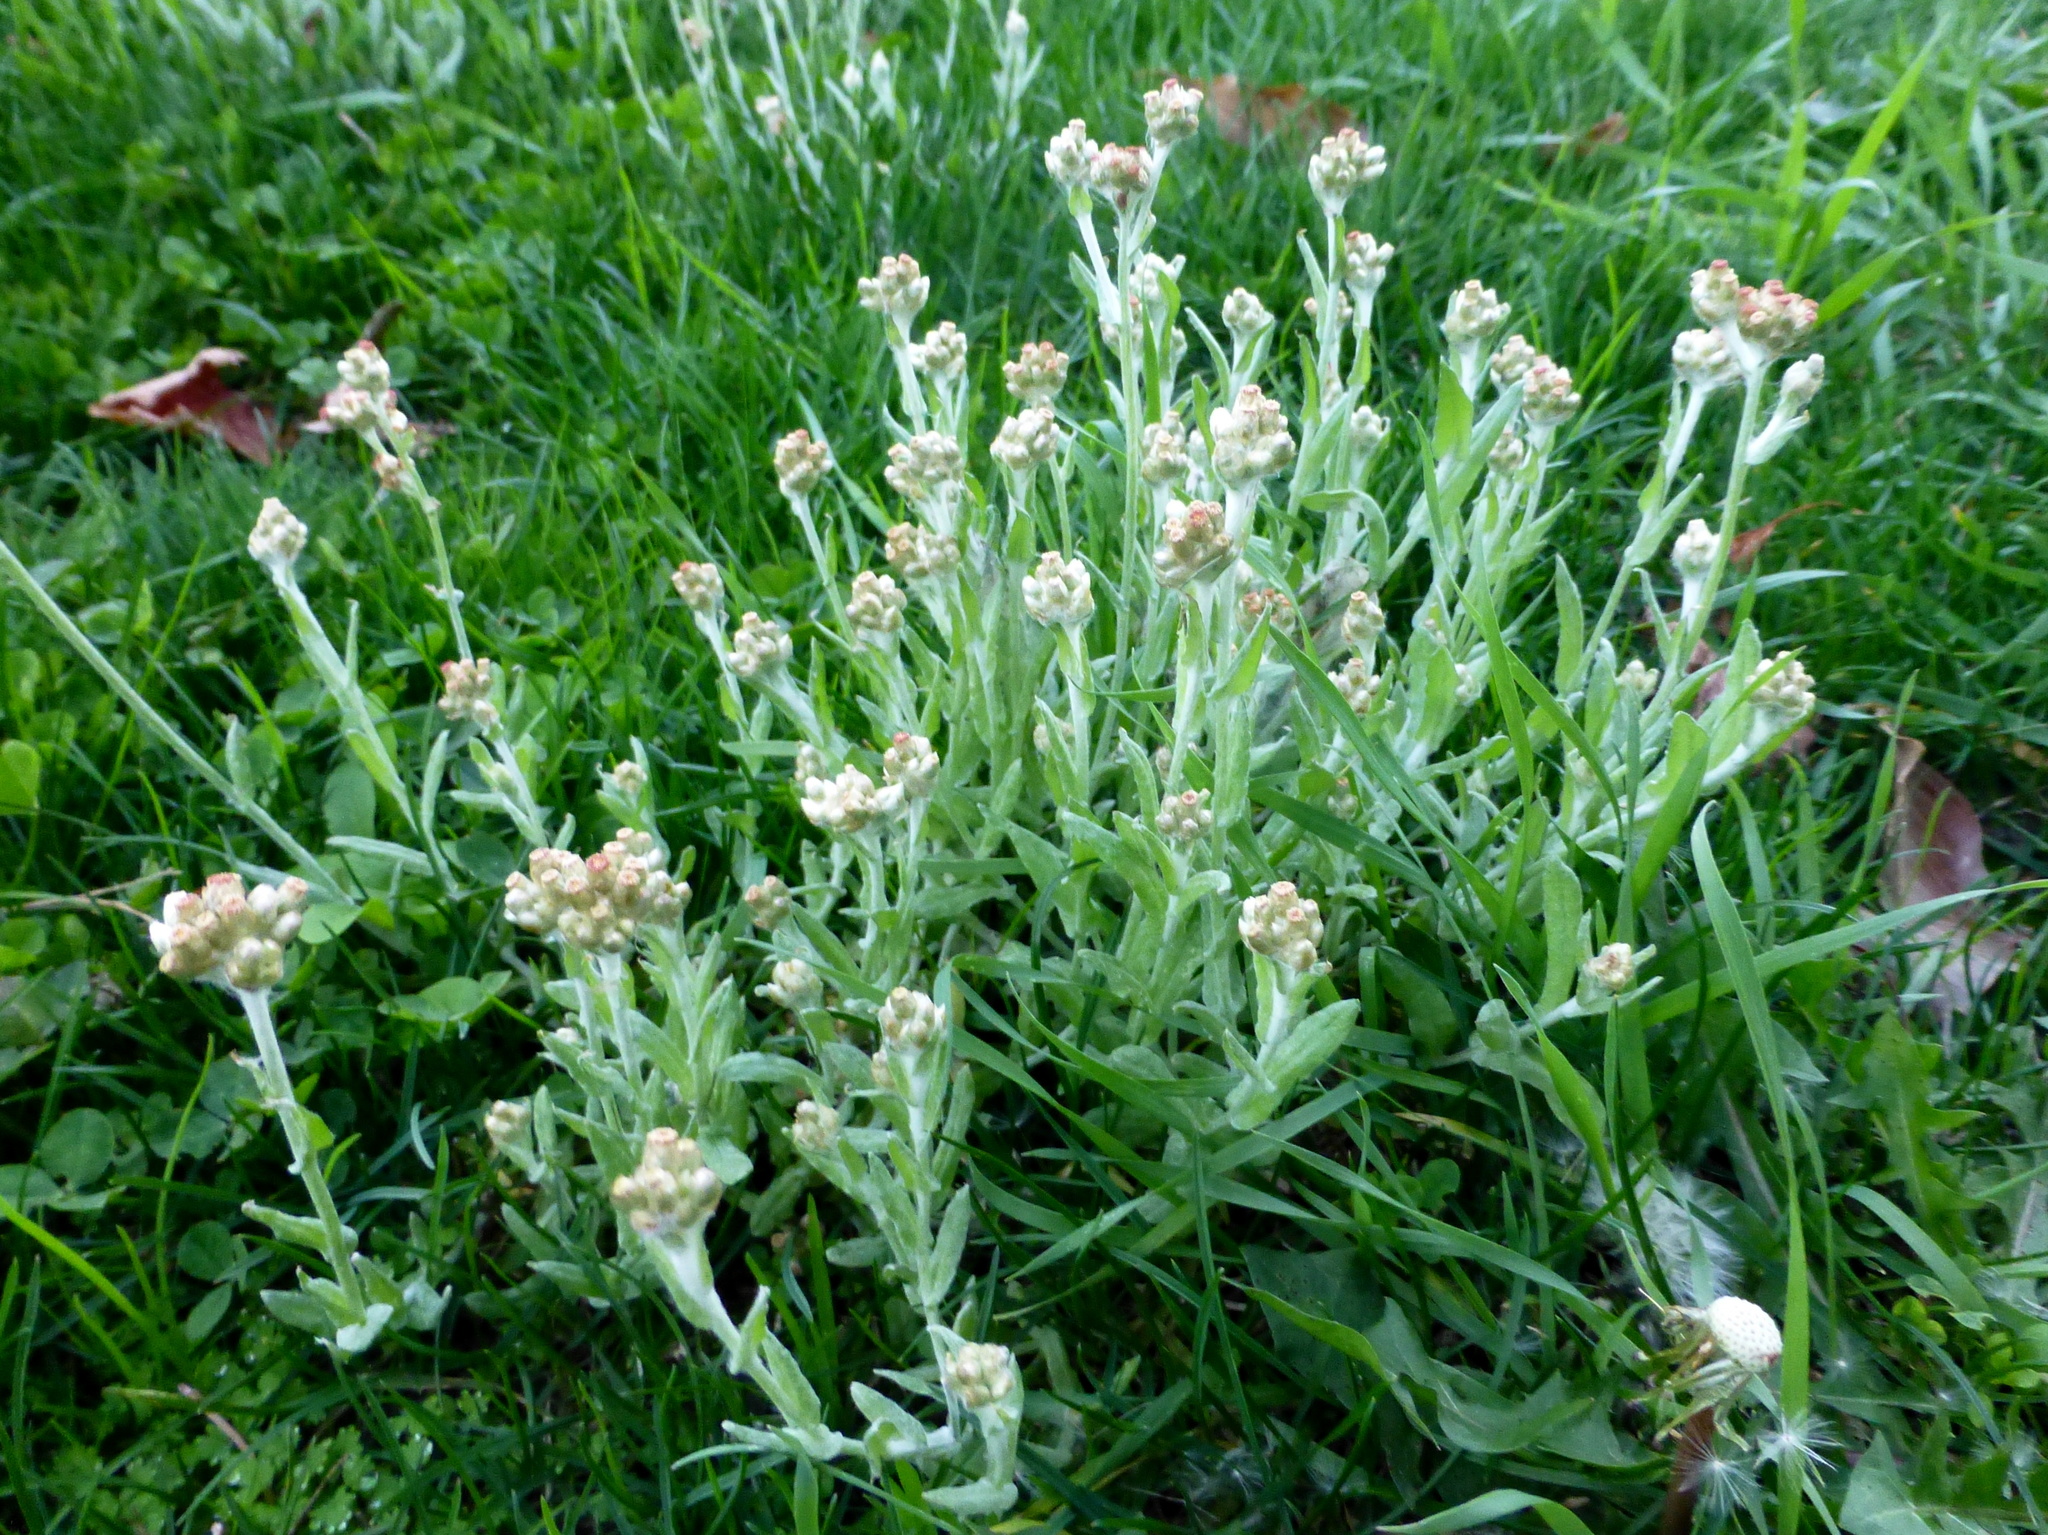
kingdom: Plantae
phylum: Tracheophyta
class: Magnoliopsida
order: Asterales
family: Asteraceae
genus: Helichrysum
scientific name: Helichrysum luteoalbum
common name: Daisy
